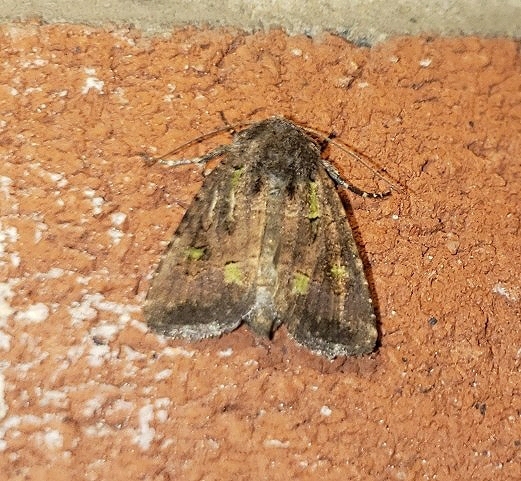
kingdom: Animalia
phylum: Arthropoda
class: Insecta
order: Lepidoptera
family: Noctuidae
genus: Lacinipolia
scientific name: Lacinipolia renigera
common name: Kidney-spotted minor
